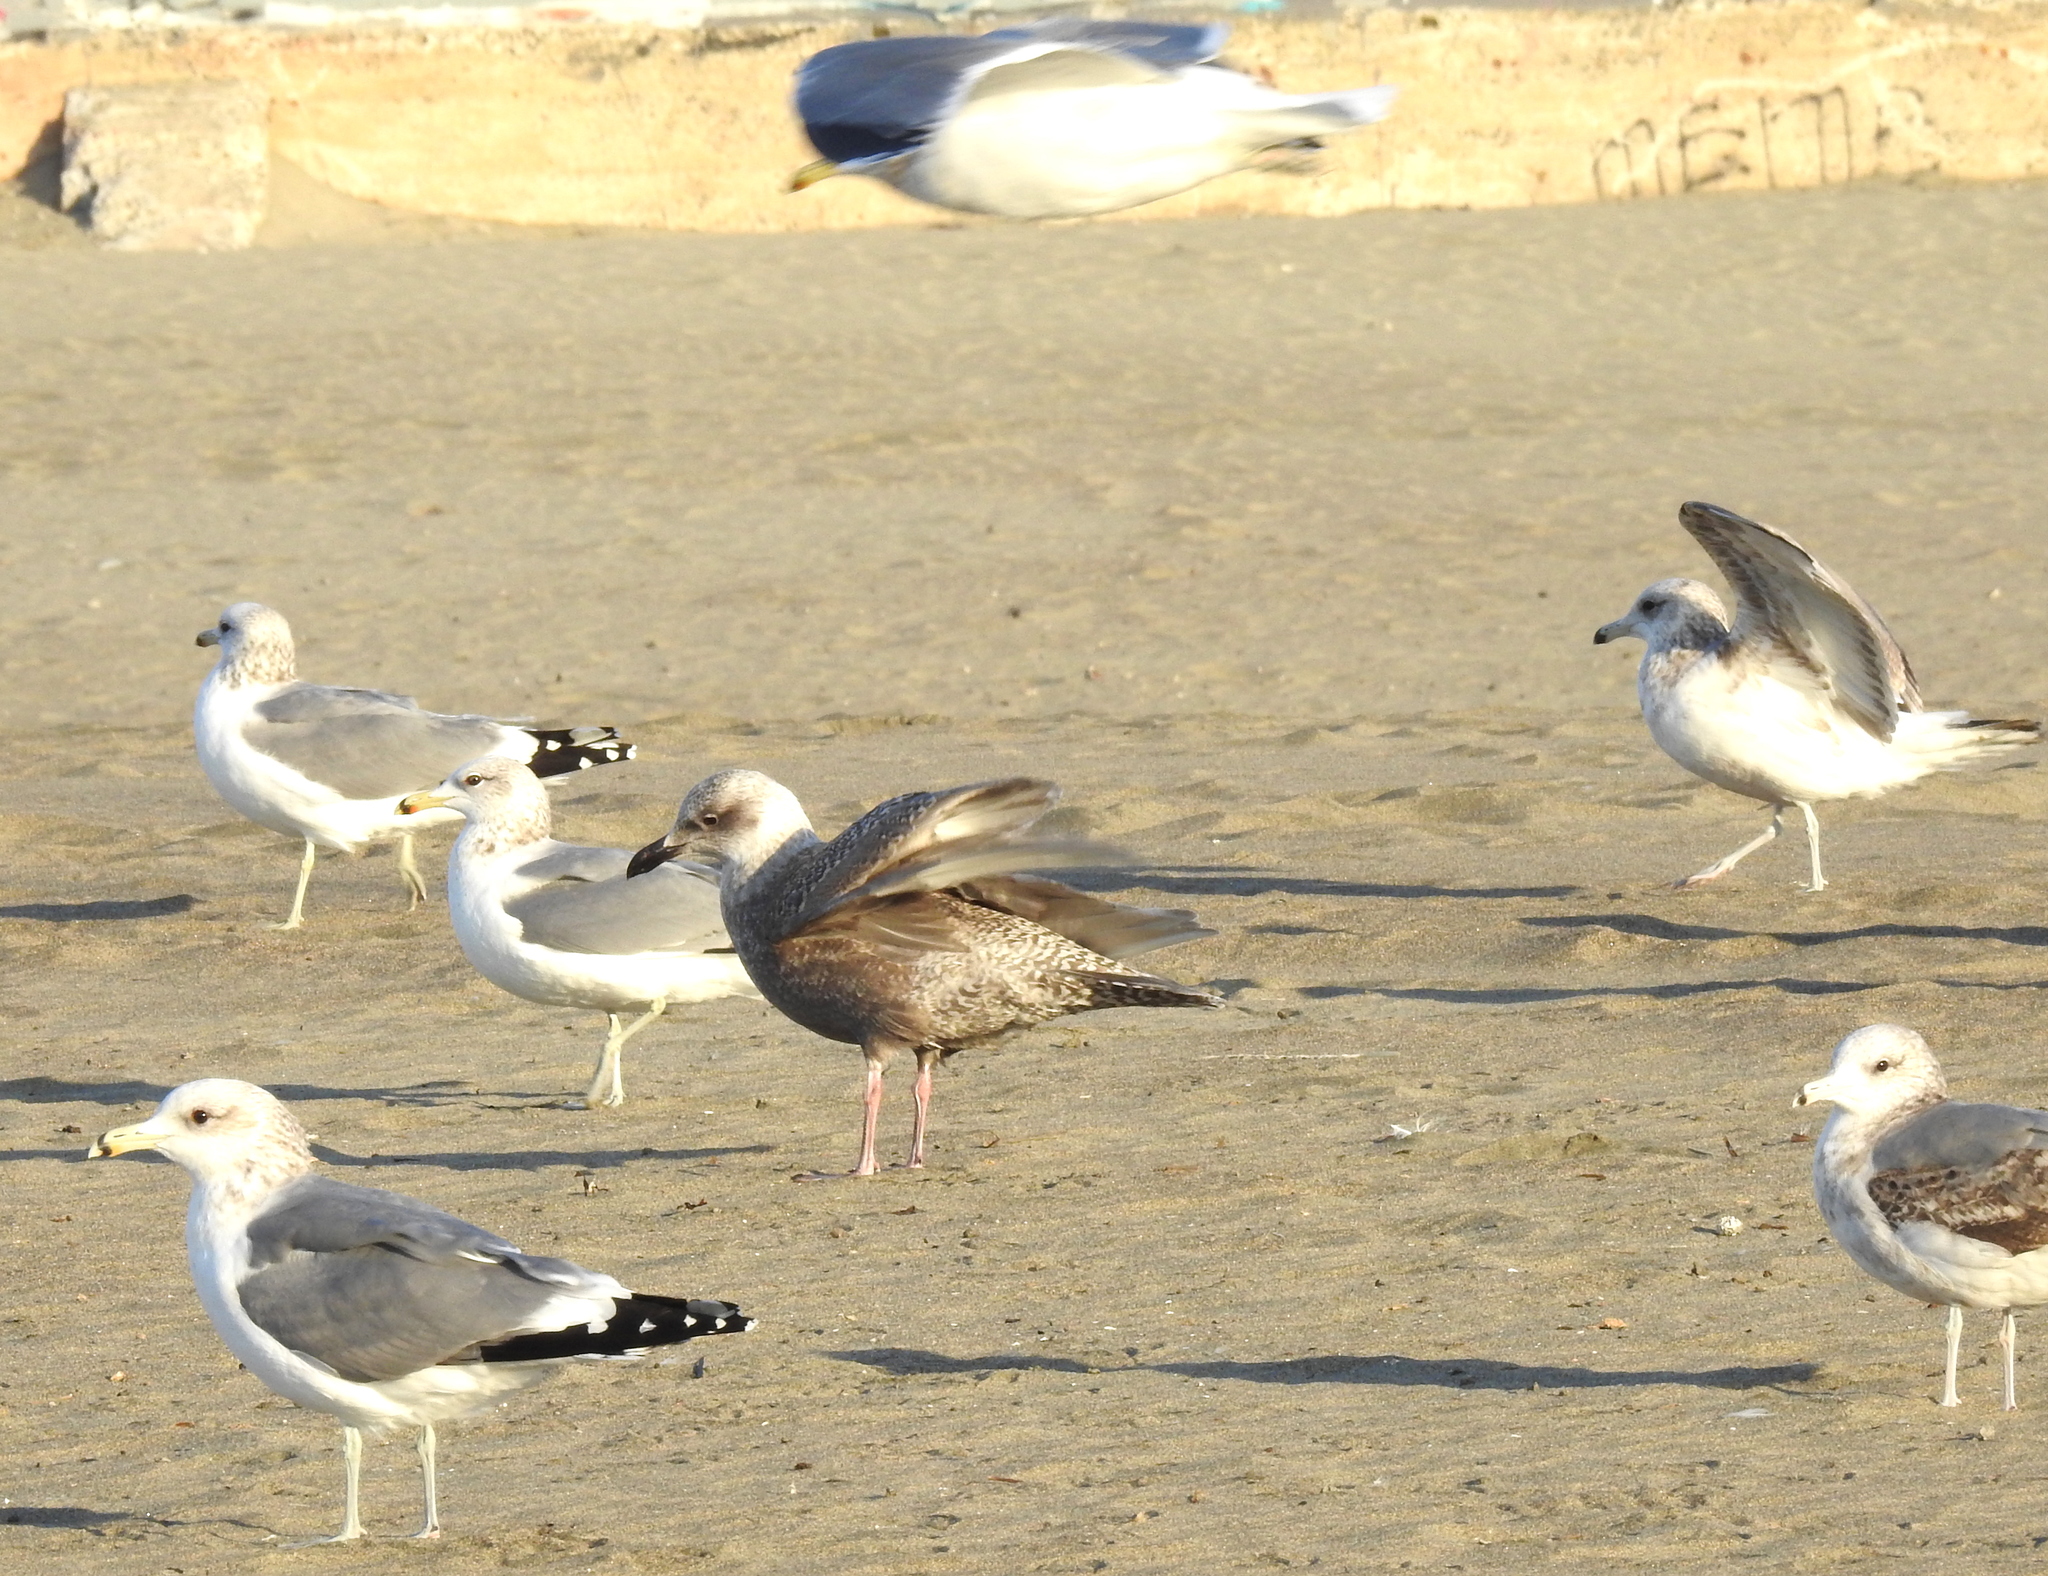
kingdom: Animalia
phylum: Chordata
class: Aves
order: Charadriiformes
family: Laridae
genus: Larus
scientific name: Larus
